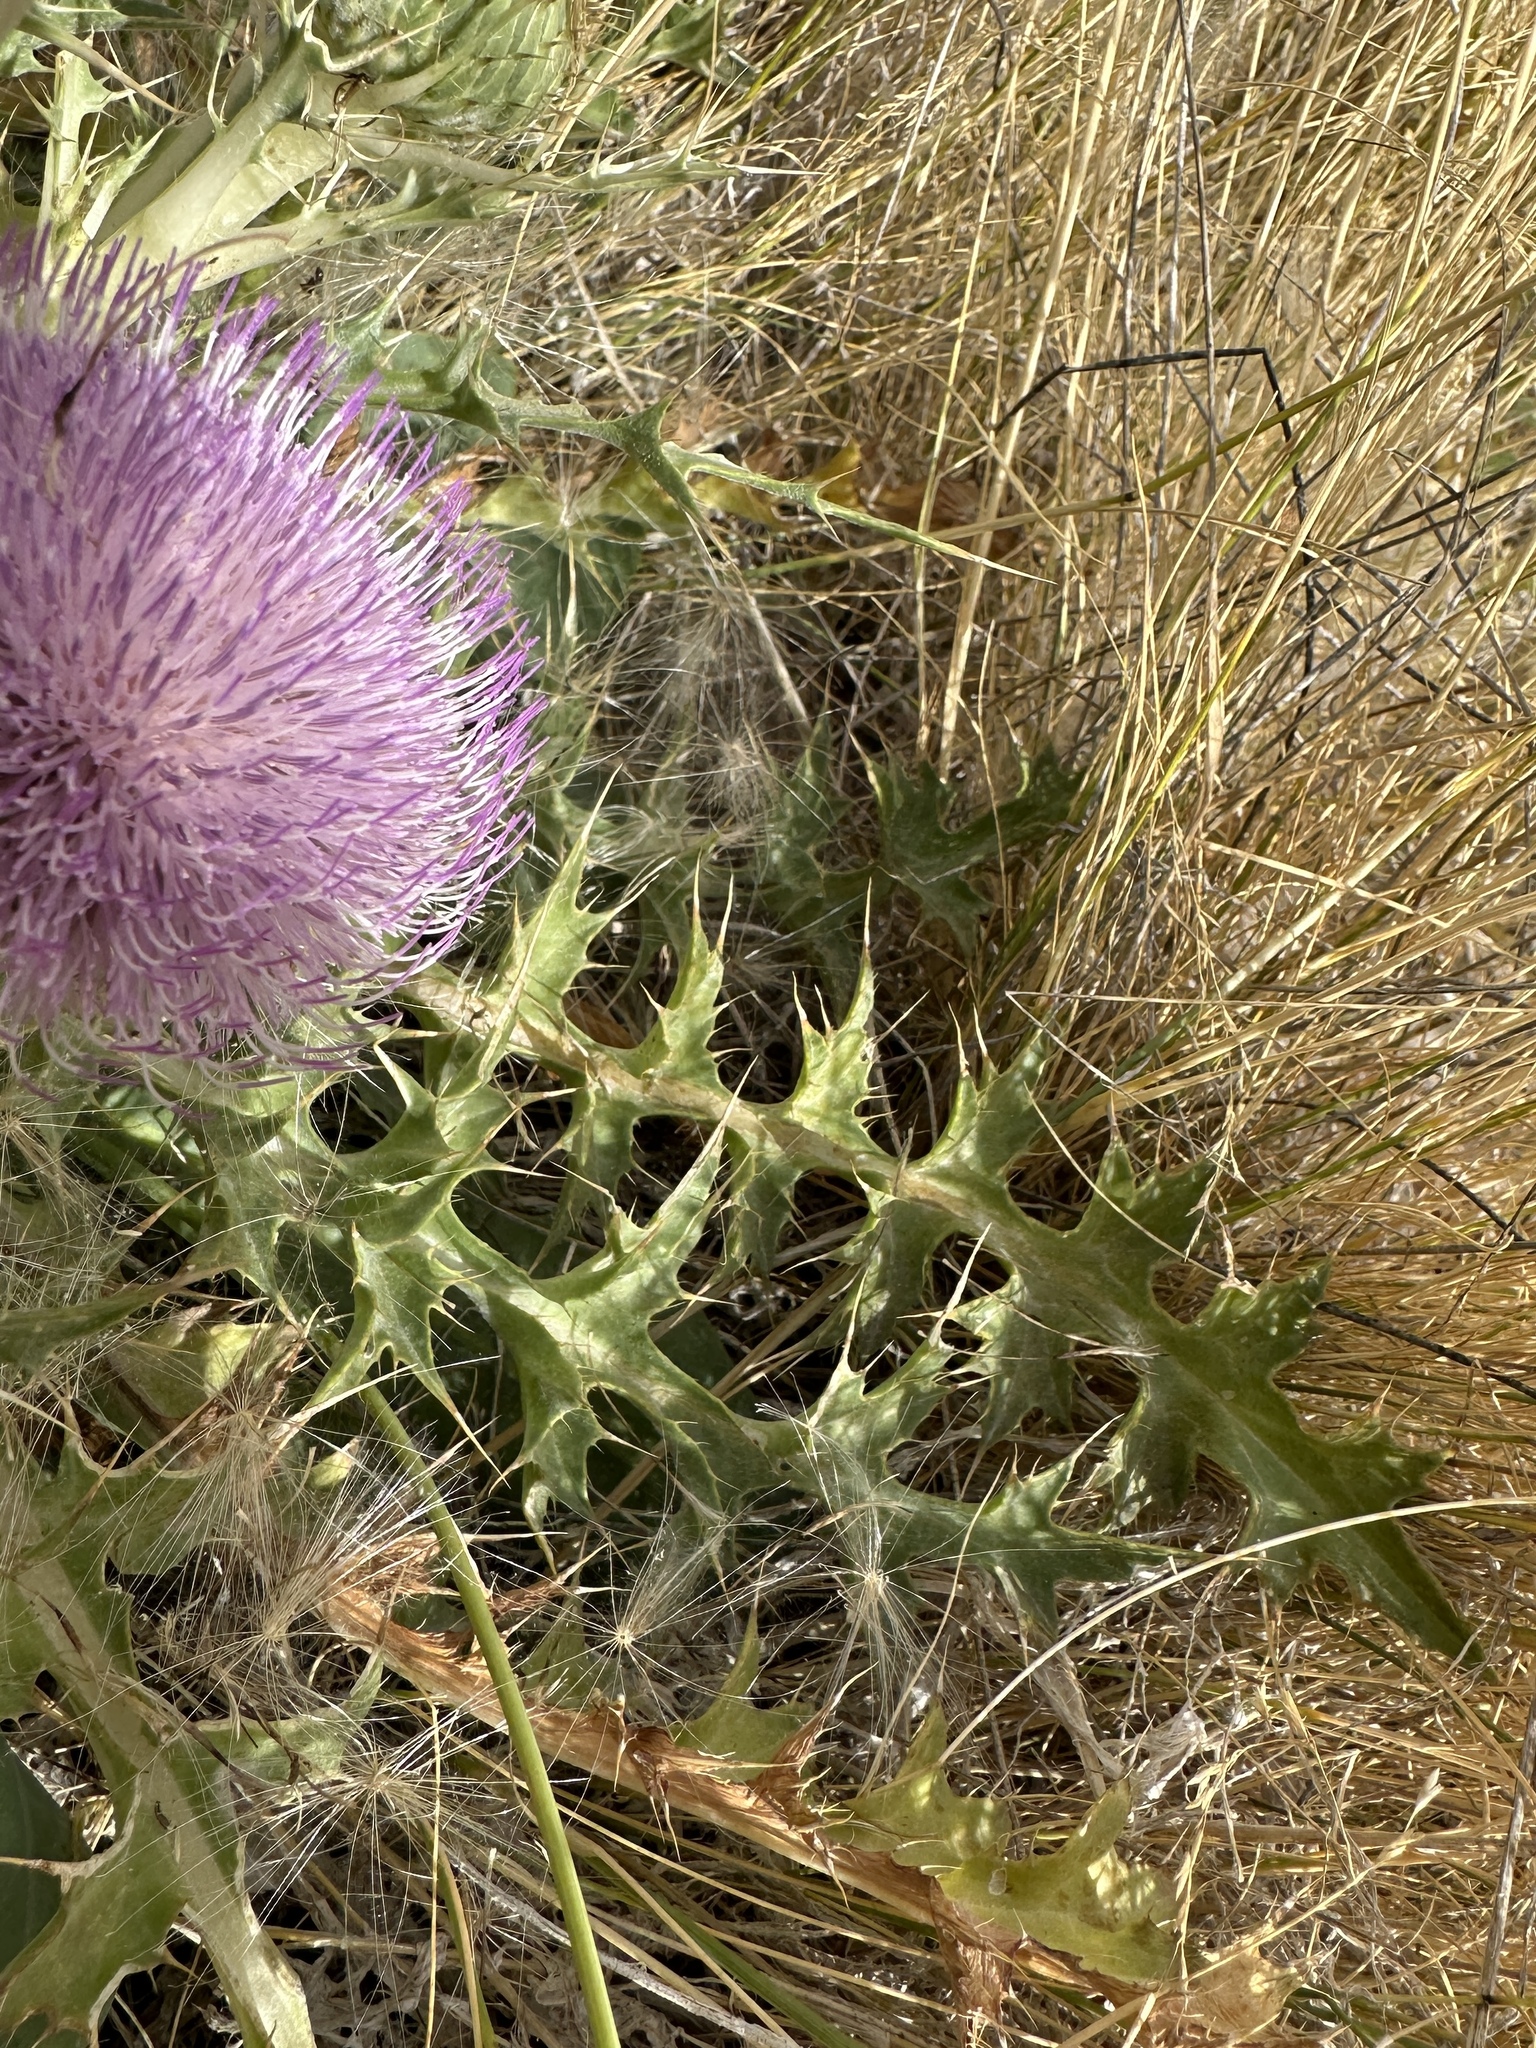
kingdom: Plantae
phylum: Tracheophyta
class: Magnoliopsida
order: Asterales
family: Asteraceae
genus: Cirsium
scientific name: Cirsium scariosum
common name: Meadow thistle
